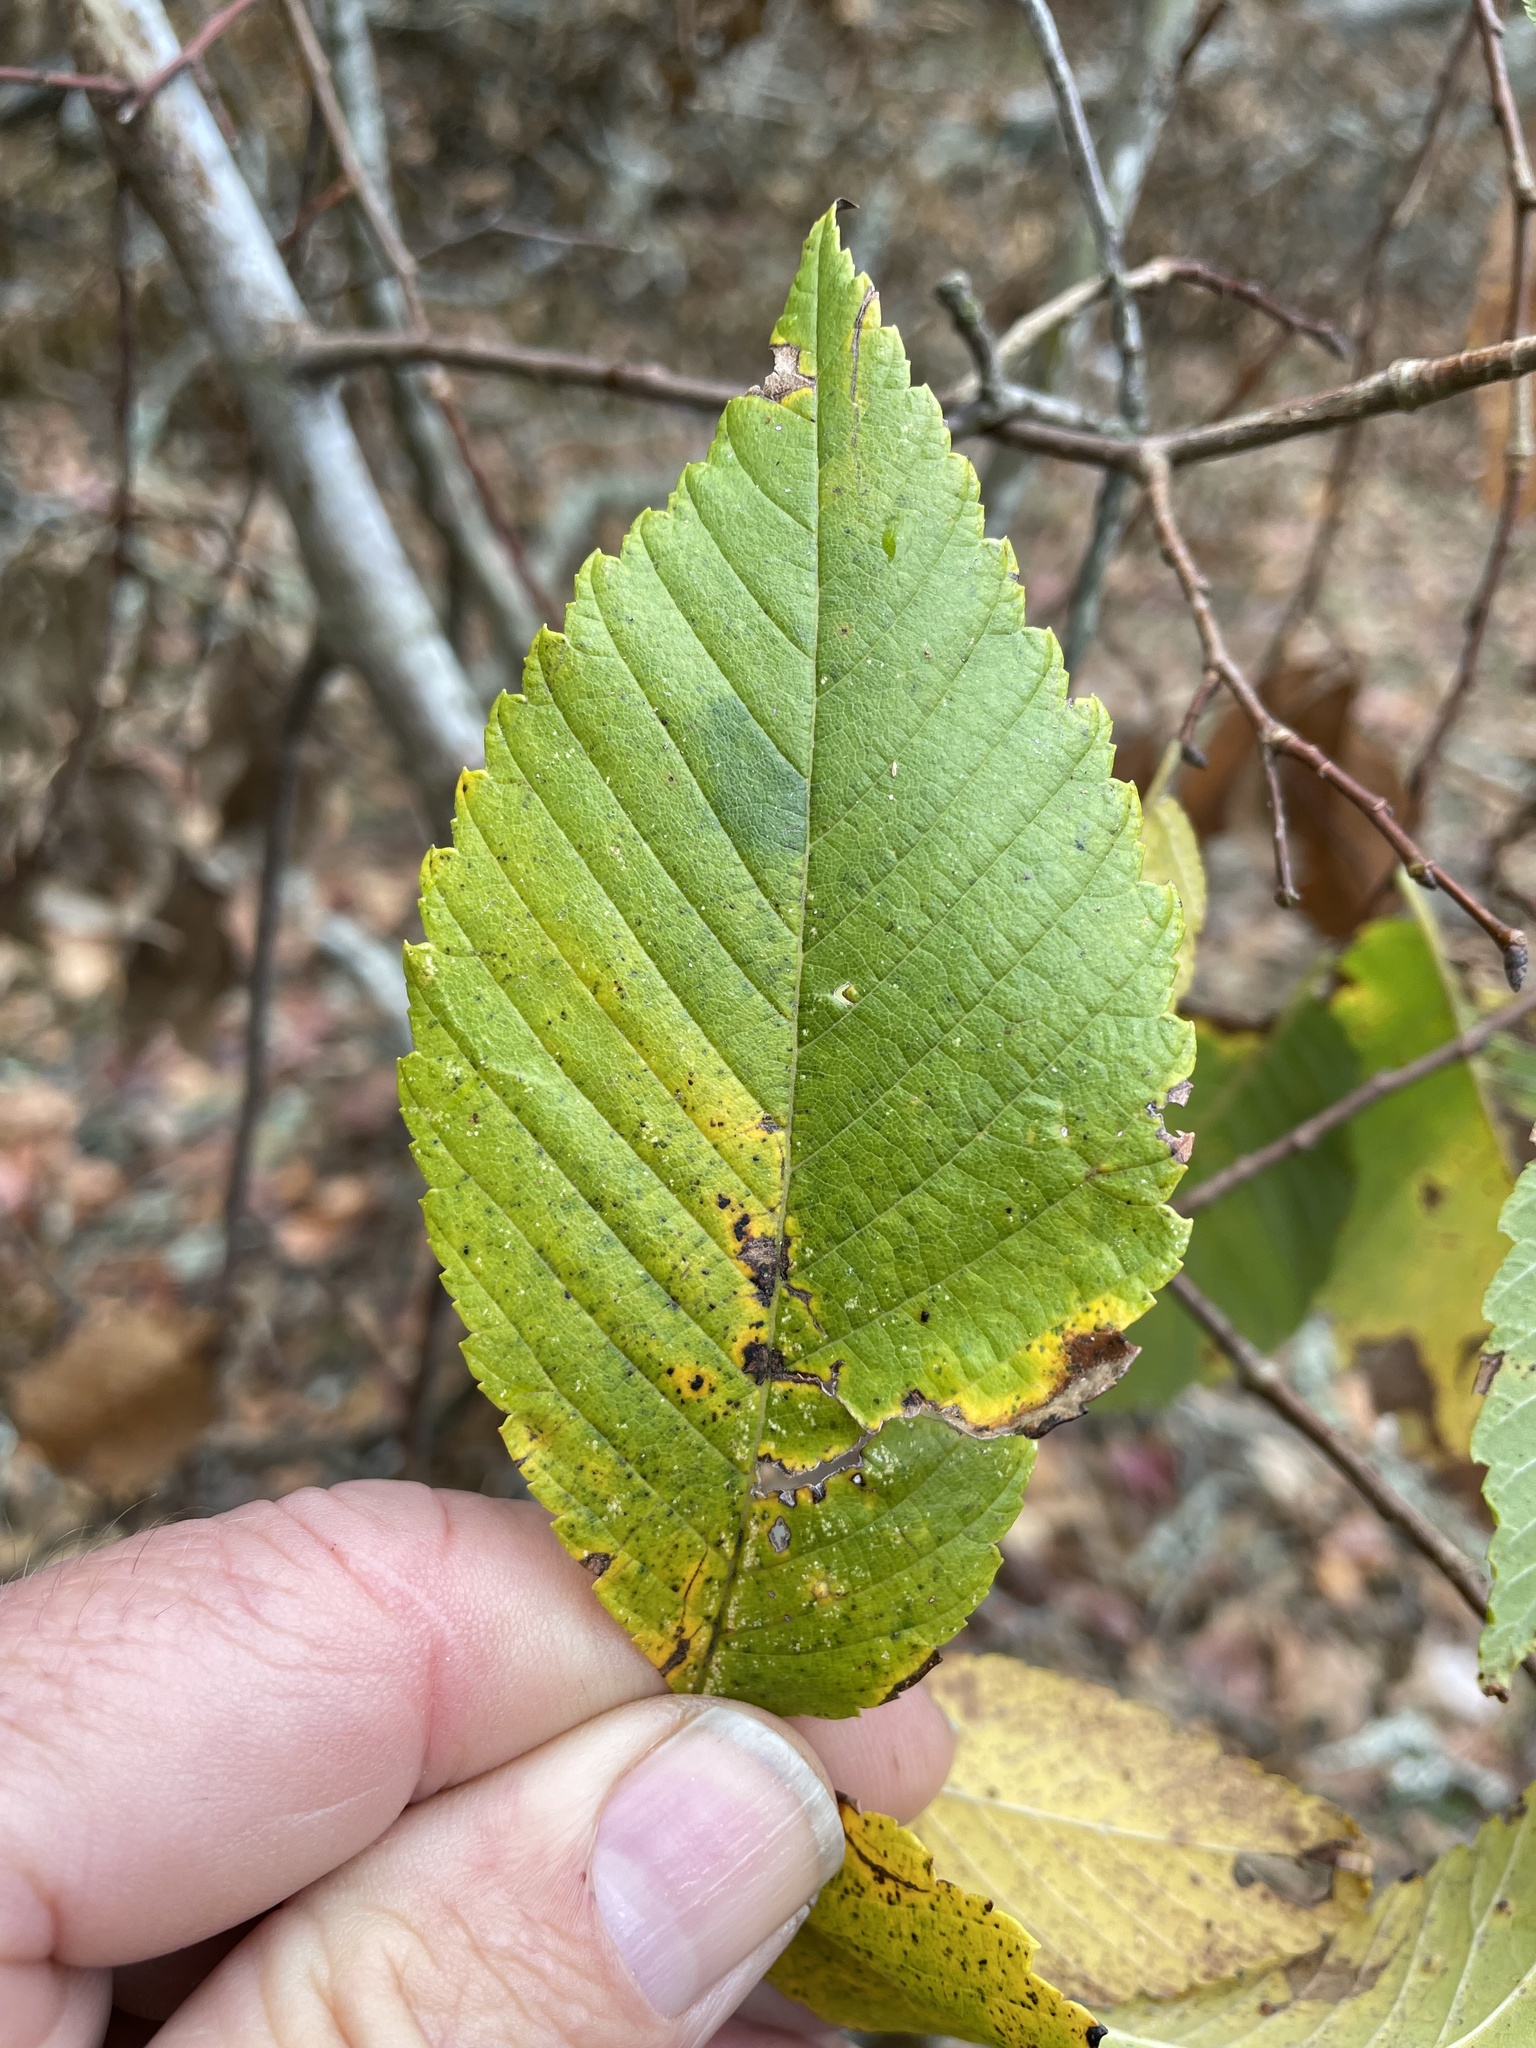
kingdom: Plantae
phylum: Tracheophyta
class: Magnoliopsida
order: Rosales
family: Ulmaceae
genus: Ulmus
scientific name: Ulmus americana
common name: American elm
